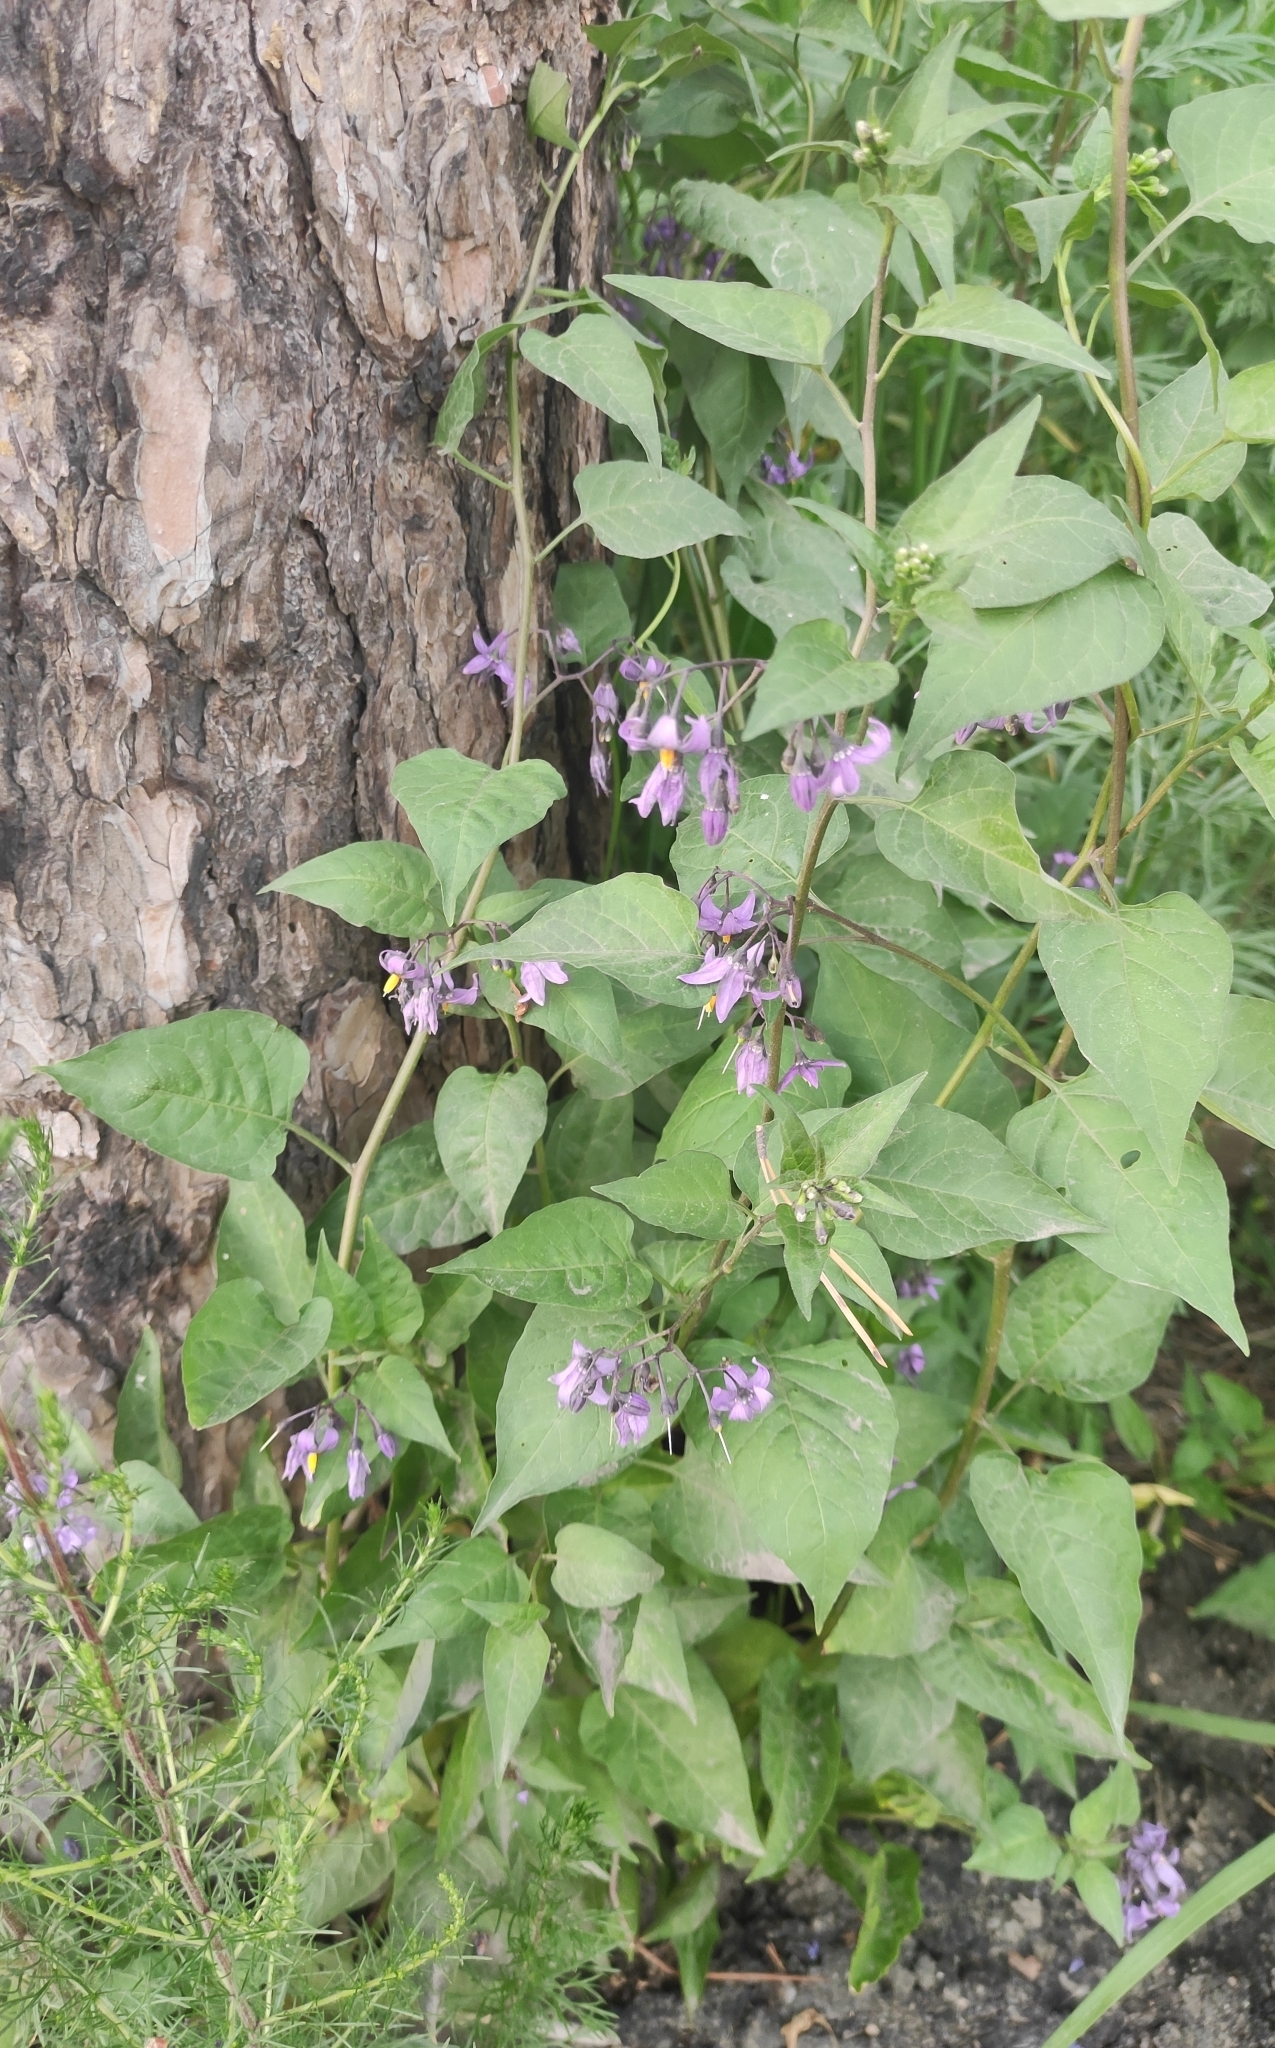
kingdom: Plantae
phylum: Tracheophyta
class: Magnoliopsida
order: Solanales
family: Solanaceae
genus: Solanum
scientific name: Solanum dulcamara
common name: Climbing nightshade
